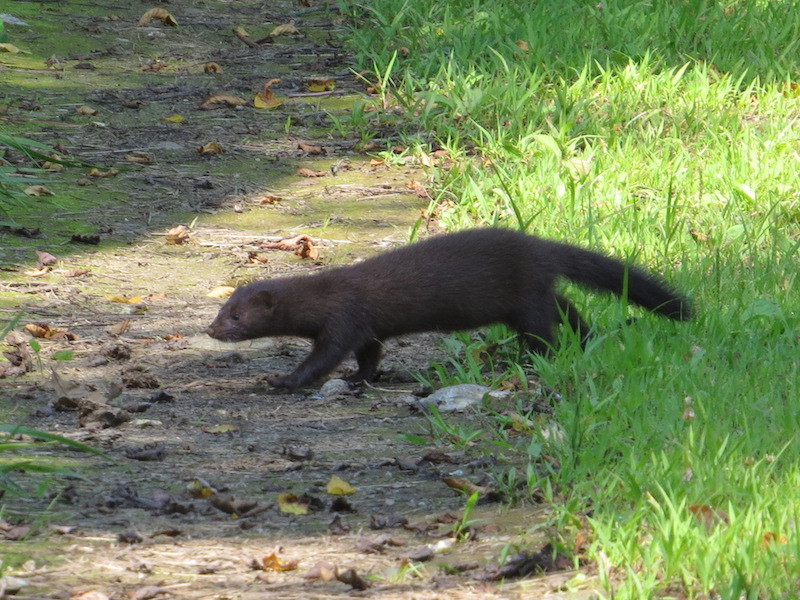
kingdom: Animalia
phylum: Chordata
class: Mammalia
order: Carnivora
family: Mustelidae
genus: Mustela
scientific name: Mustela
